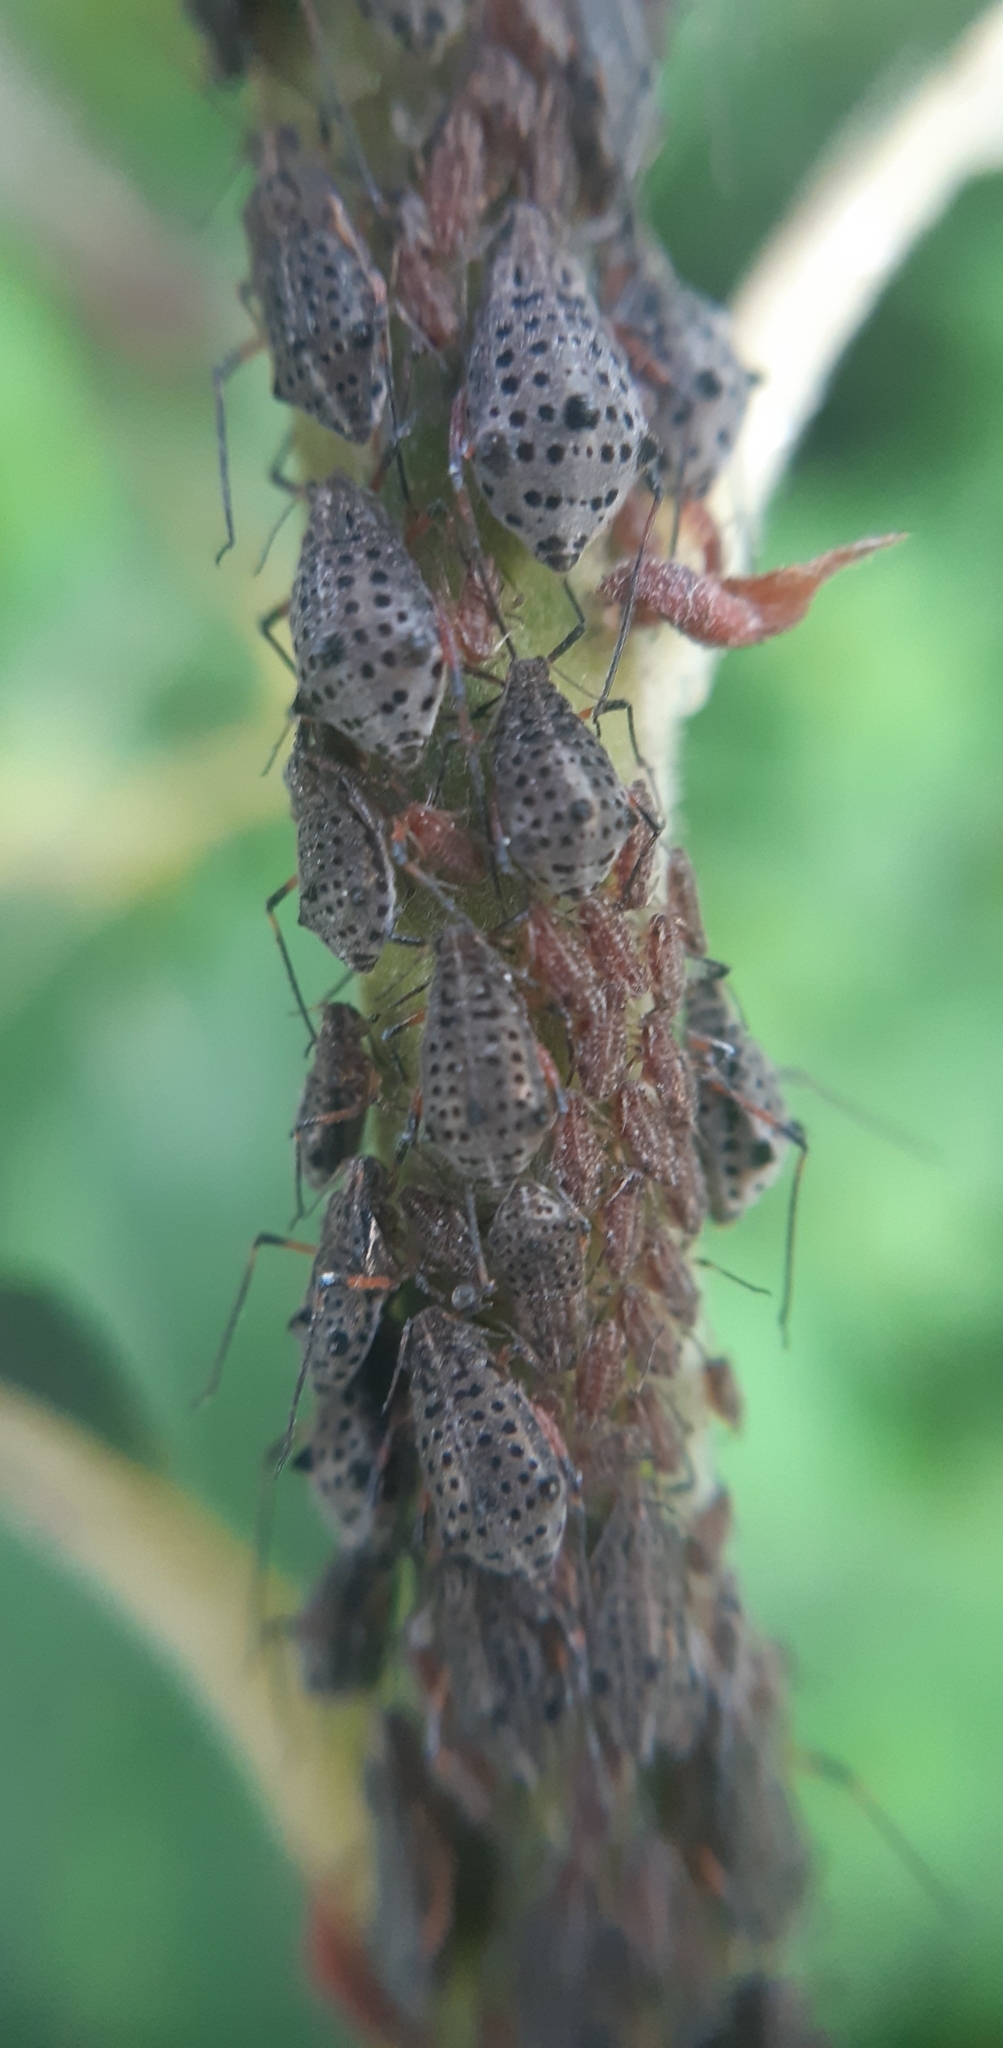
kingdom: Animalia
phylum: Arthropoda
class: Insecta
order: Hemiptera
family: Aphididae
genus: Tuberolachnus
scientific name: Tuberolachnus salignus
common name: Giant willow aphid
